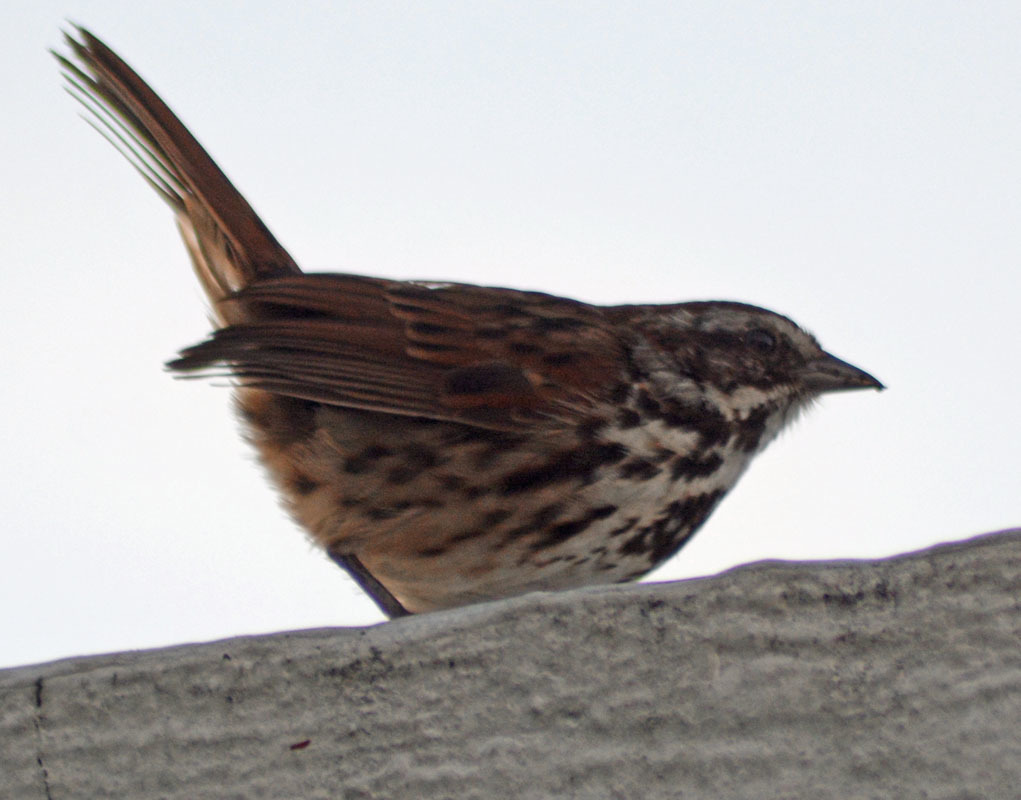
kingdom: Animalia
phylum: Chordata
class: Aves
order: Passeriformes
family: Passerellidae
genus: Melospiza
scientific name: Melospiza melodia
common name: Song sparrow
